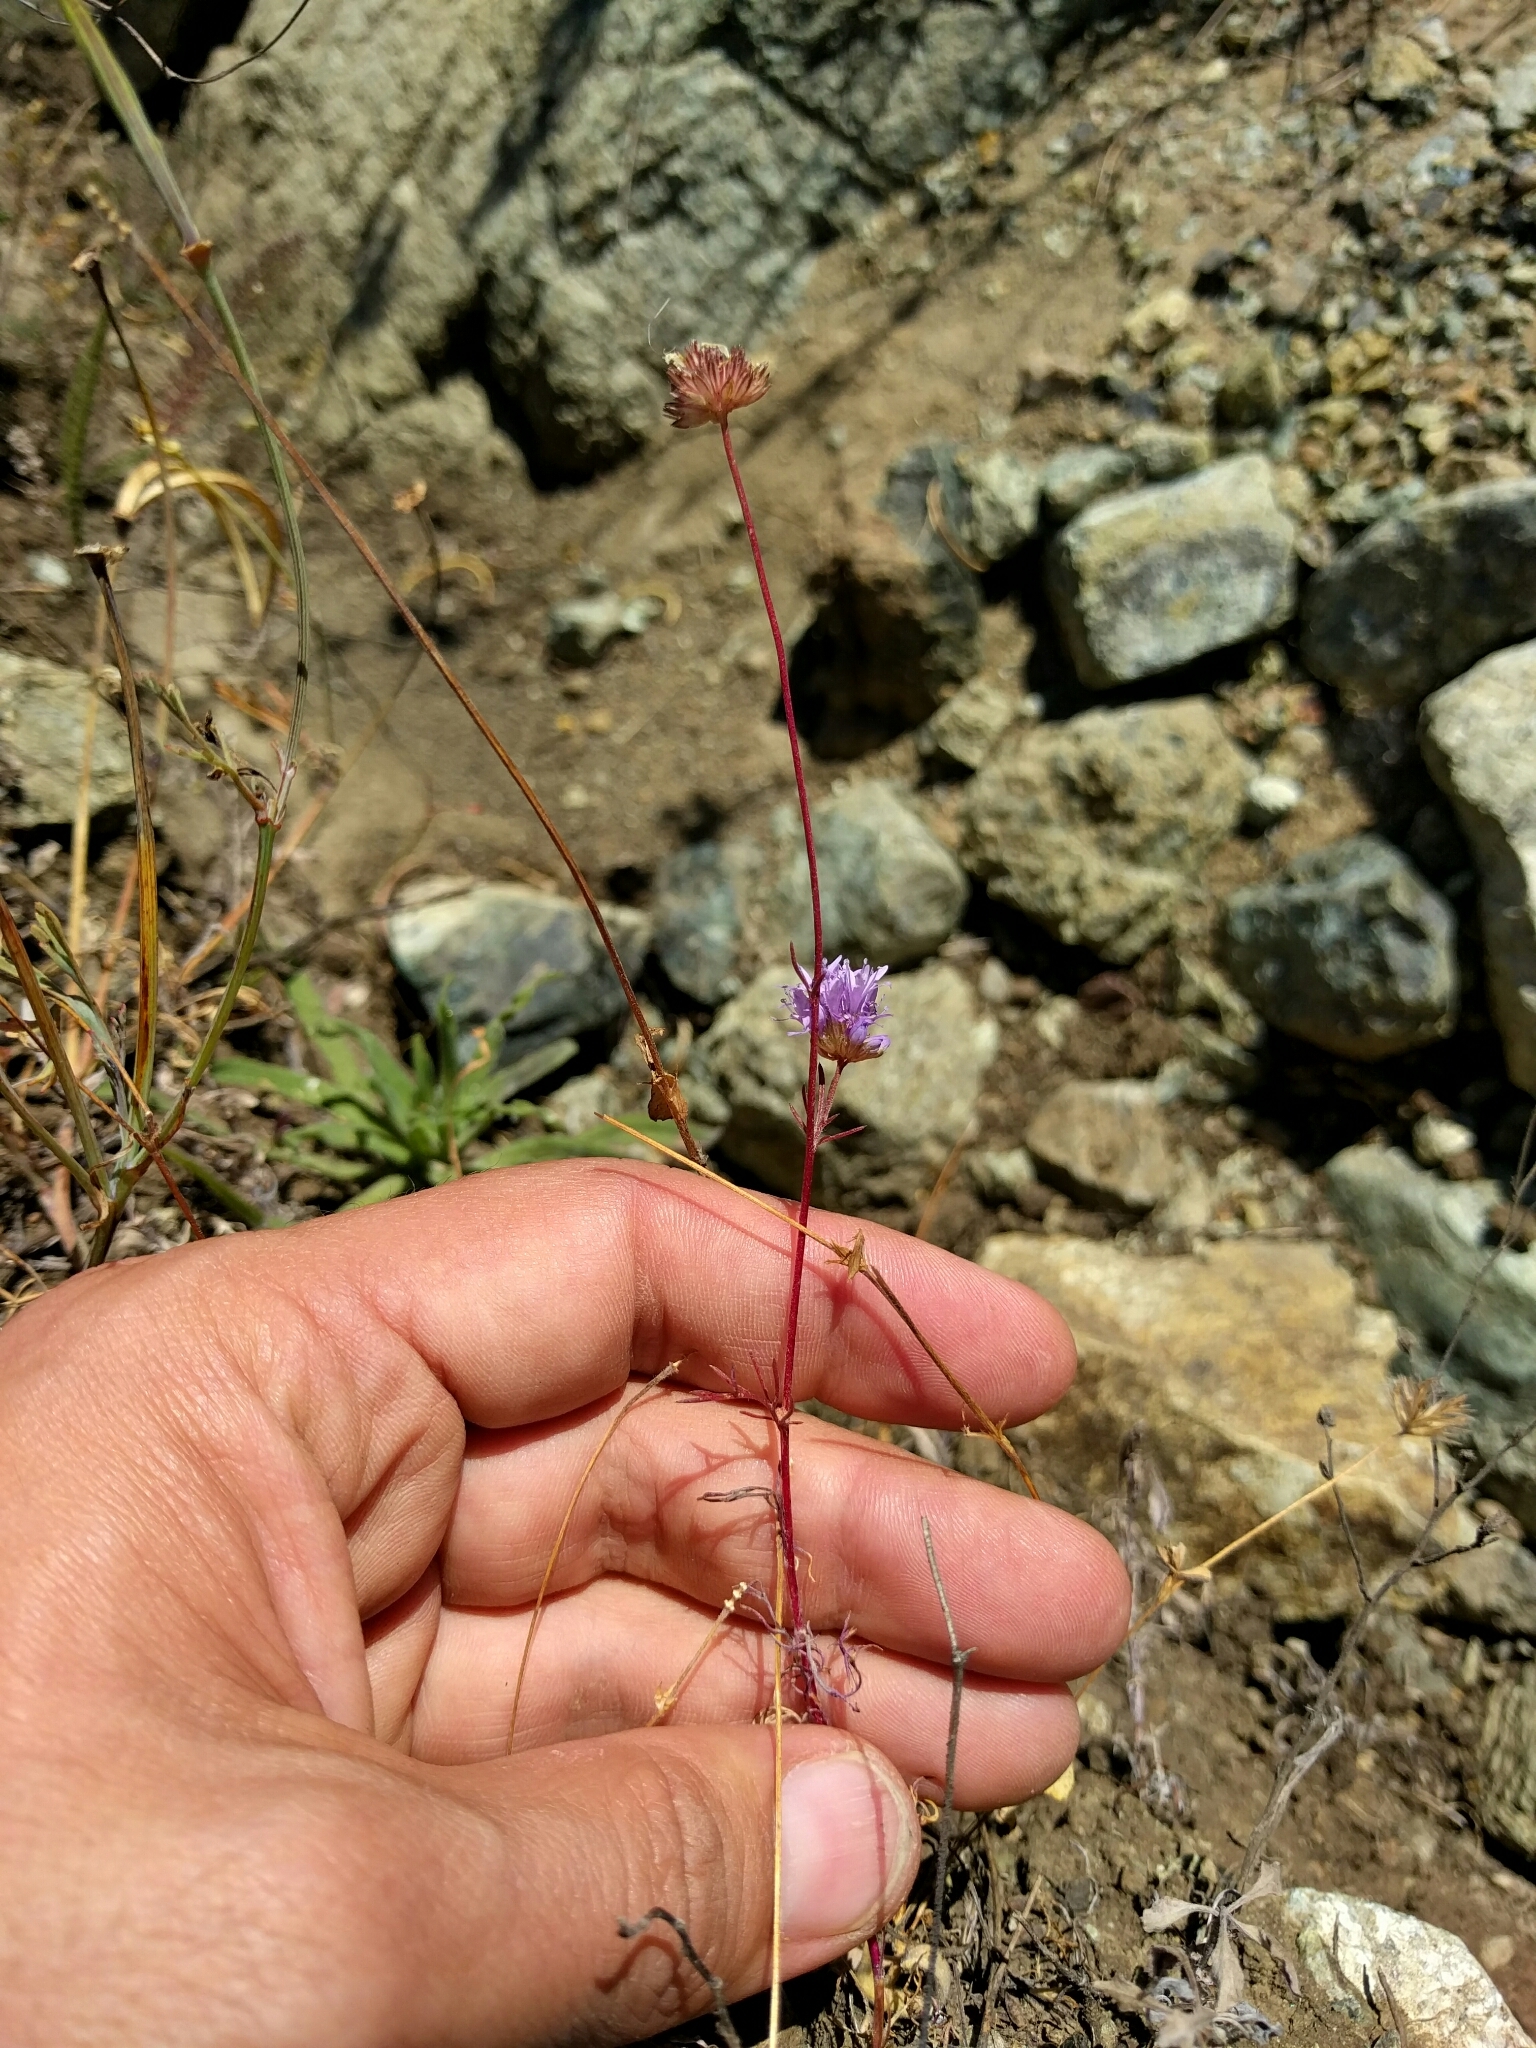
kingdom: Plantae
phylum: Tracheophyta
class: Magnoliopsida
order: Ericales
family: Polemoniaceae
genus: Gilia
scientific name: Gilia capitata
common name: Bluehead gilia
